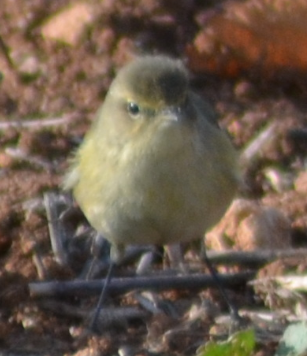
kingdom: Animalia
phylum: Chordata
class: Aves
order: Passeriformes
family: Phylloscopidae
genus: Phylloscopus
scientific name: Phylloscopus collybita
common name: Common chiffchaff
